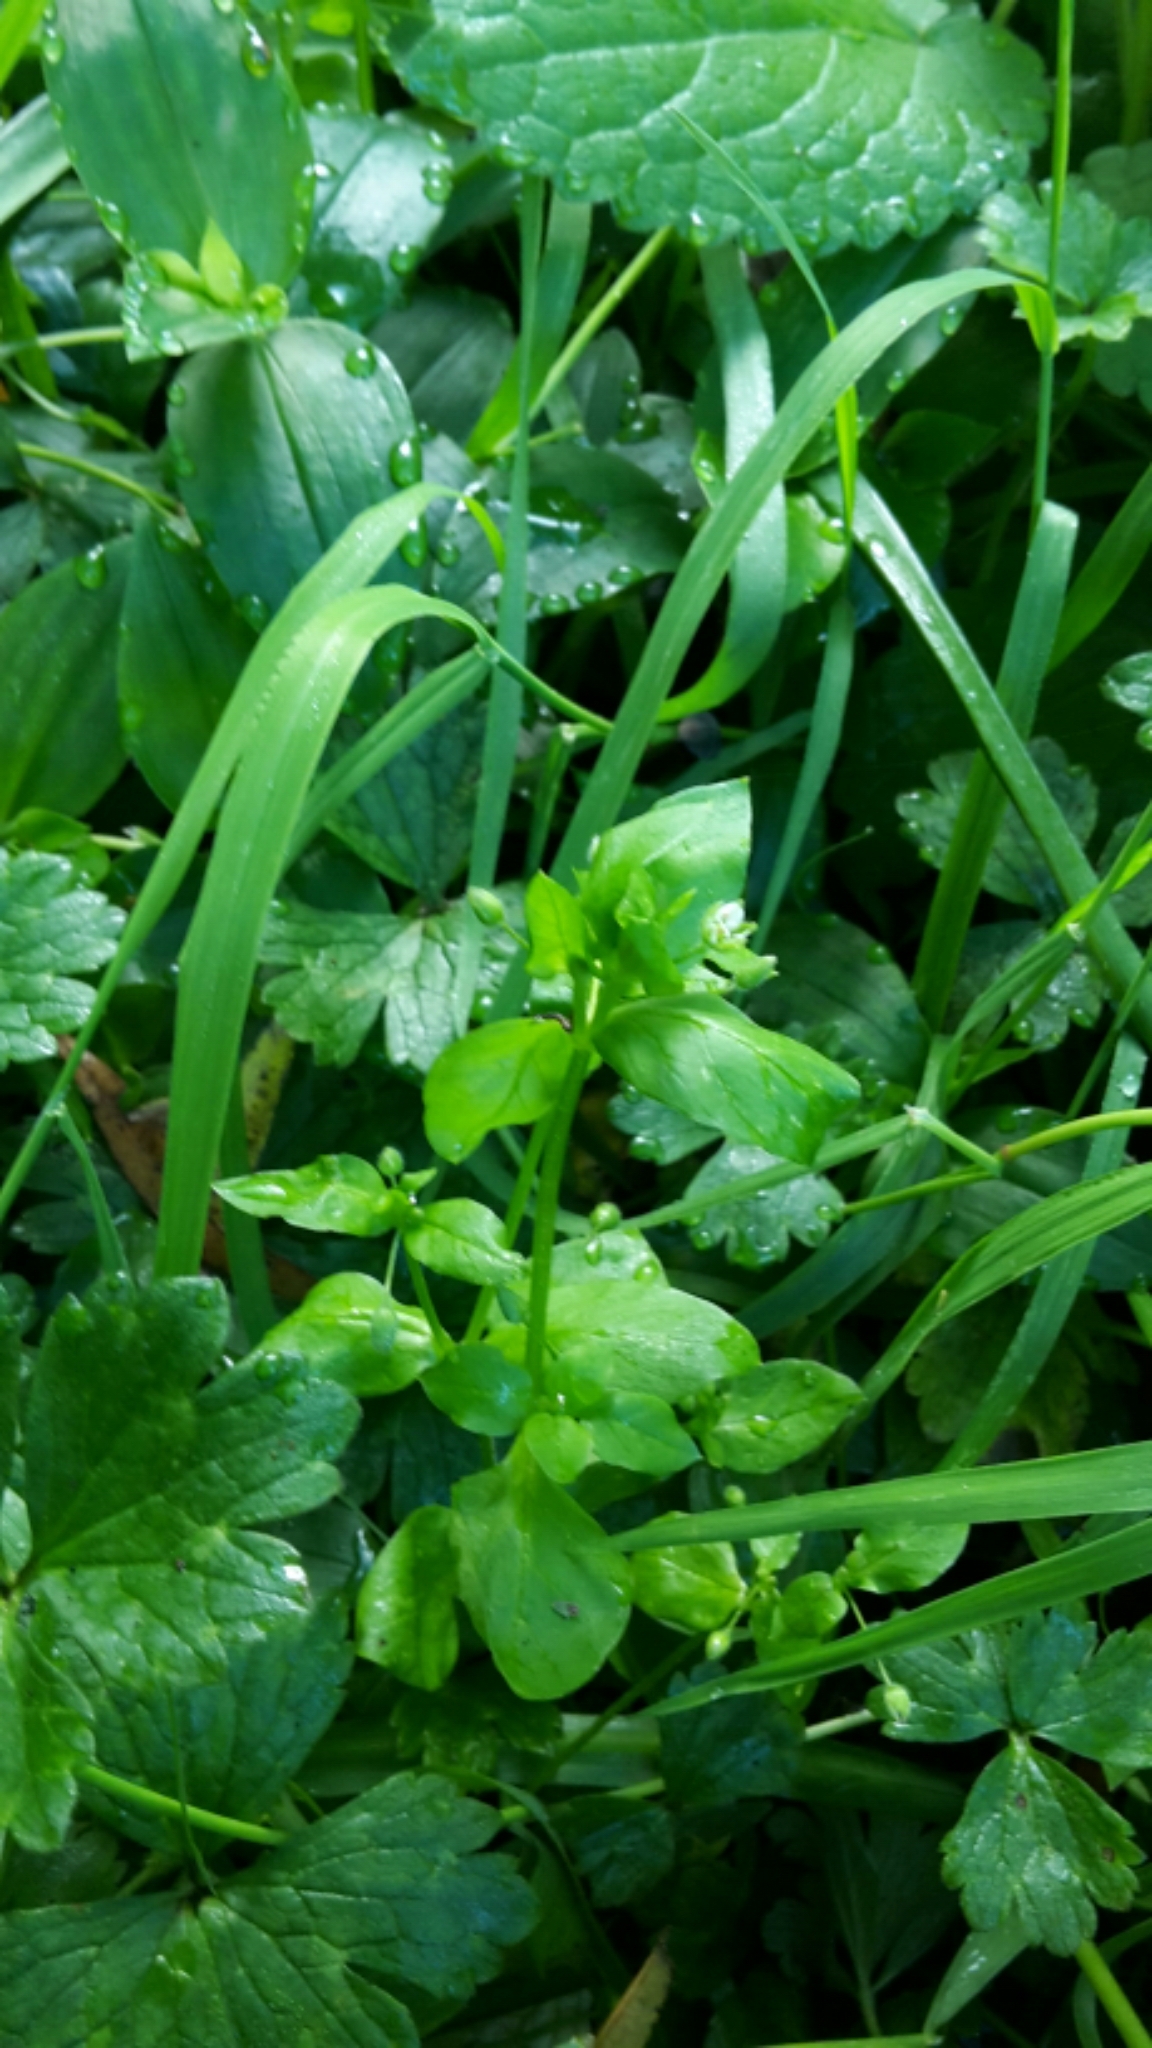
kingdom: Plantae
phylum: Tracheophyta
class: Magnoliopsida
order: Caryophyllales
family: Caryophyllaceae
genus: Stellaria
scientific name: Stellaria media
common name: Common chickweed
